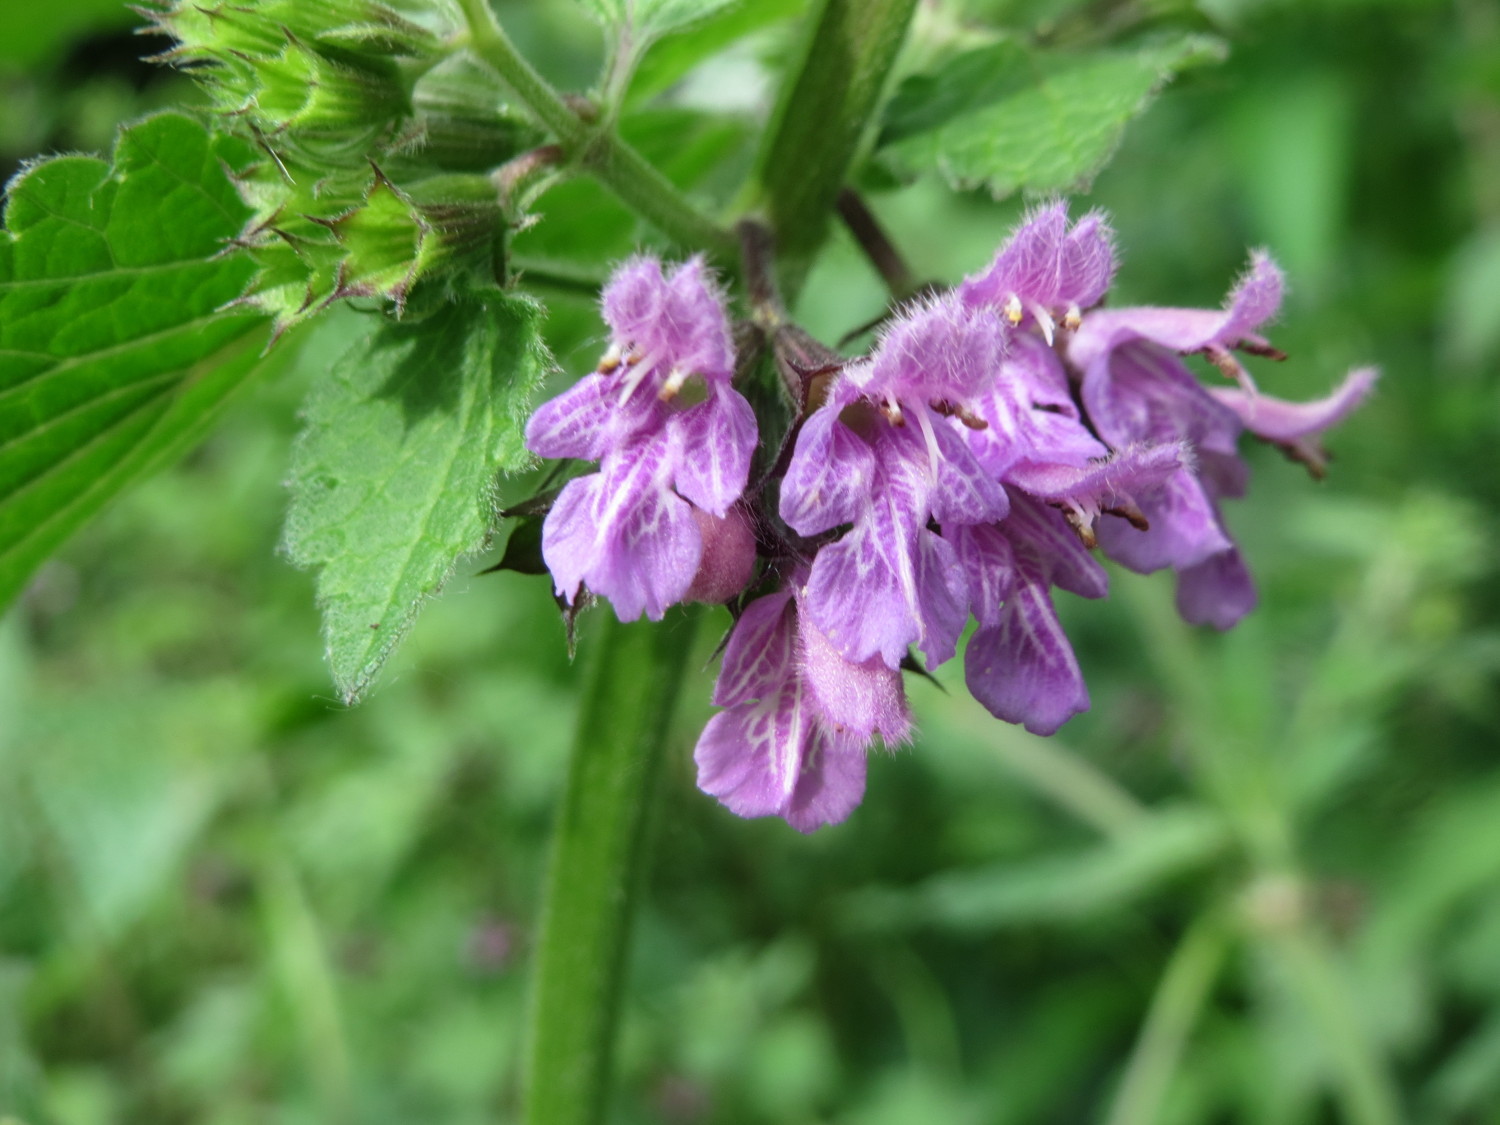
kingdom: Plantae
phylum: Tracheophyta
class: Magnoliopsida
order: Lamiales
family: Lamiaceae
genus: Ballota
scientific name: Ballota nigra
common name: Black horehound
